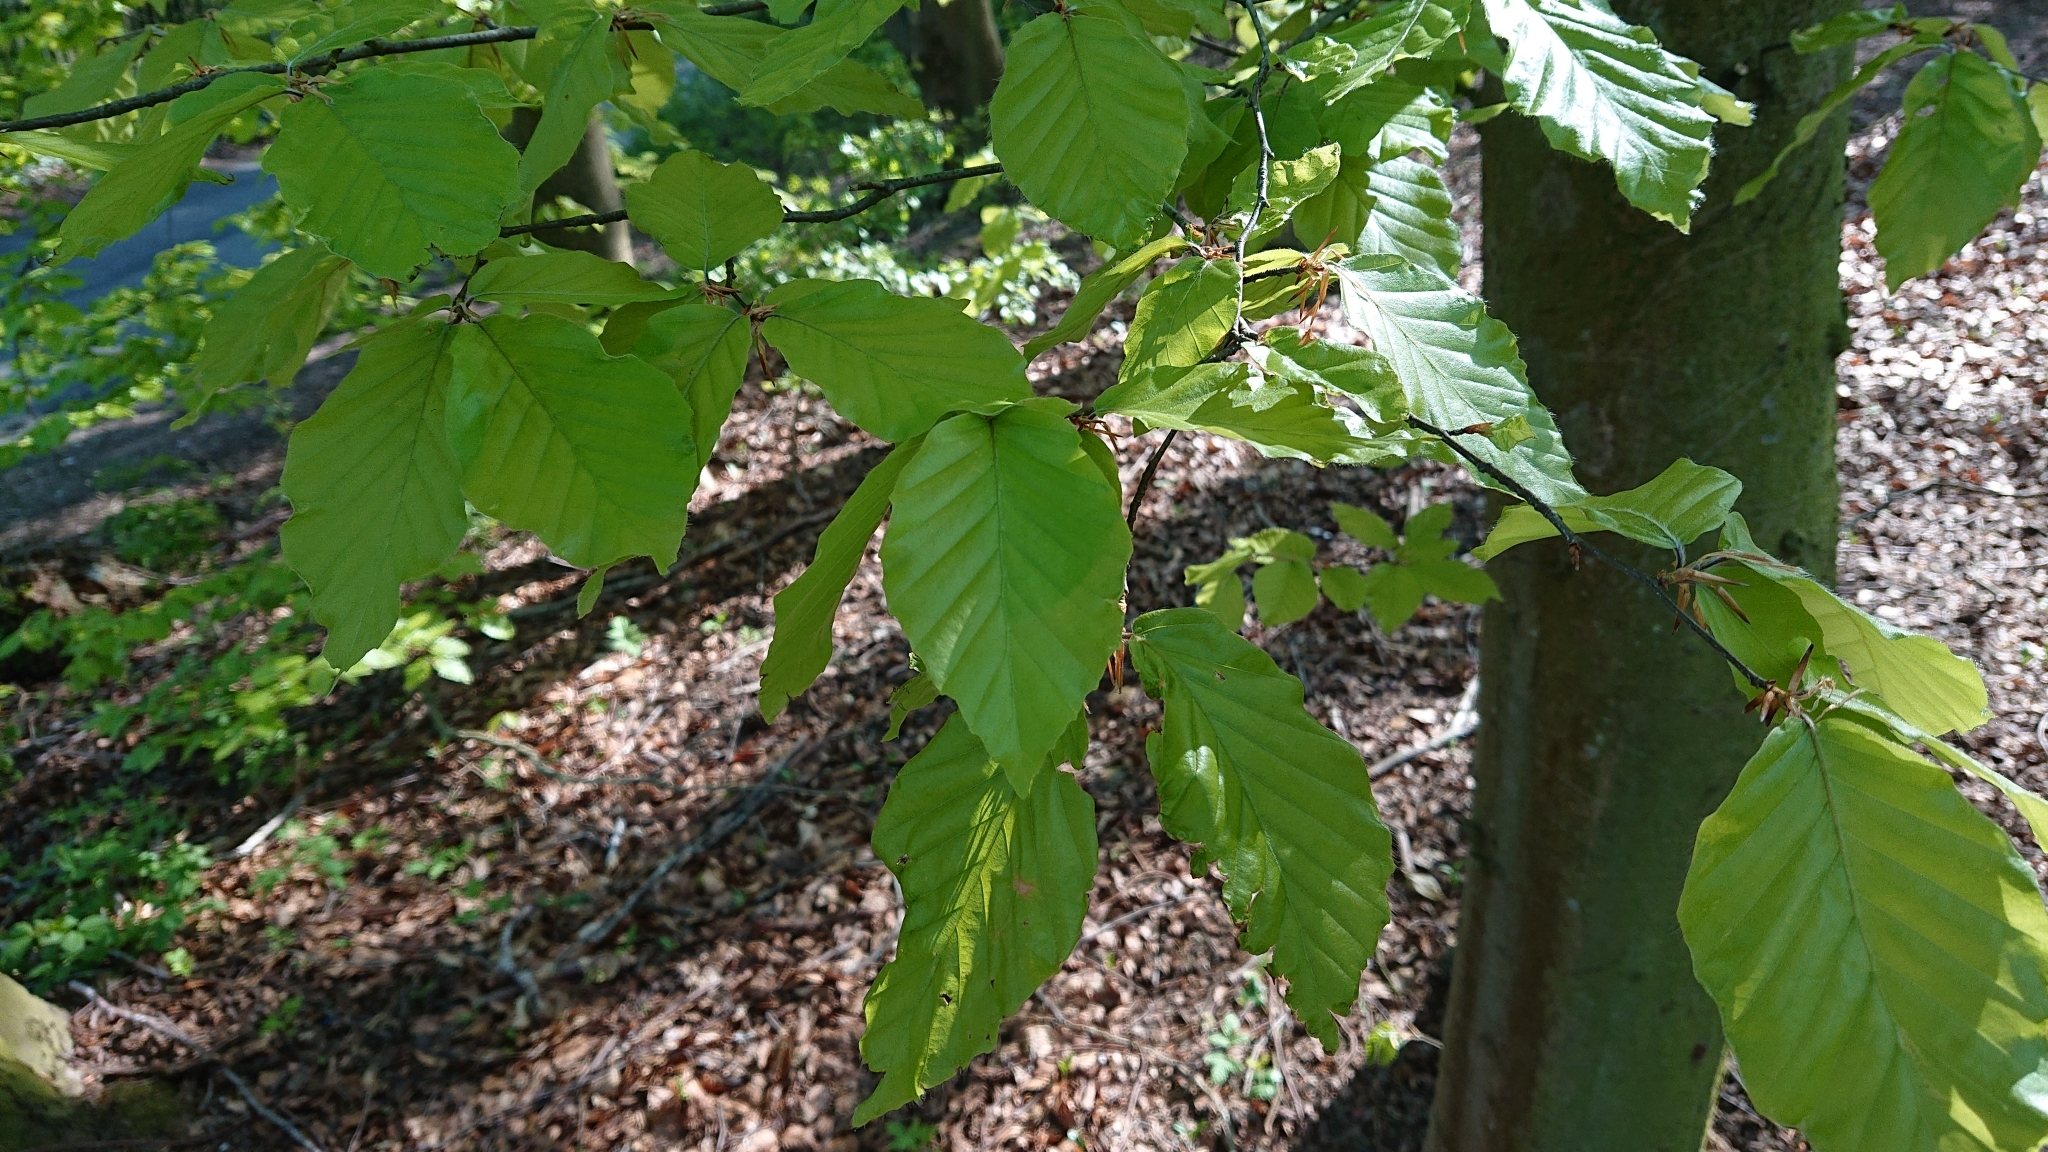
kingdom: Plantae
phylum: Tracheophyta
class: Magnoliopsida
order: Fagales
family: Fagaceae
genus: Fagus
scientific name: Fagus sylvatica
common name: Beech
